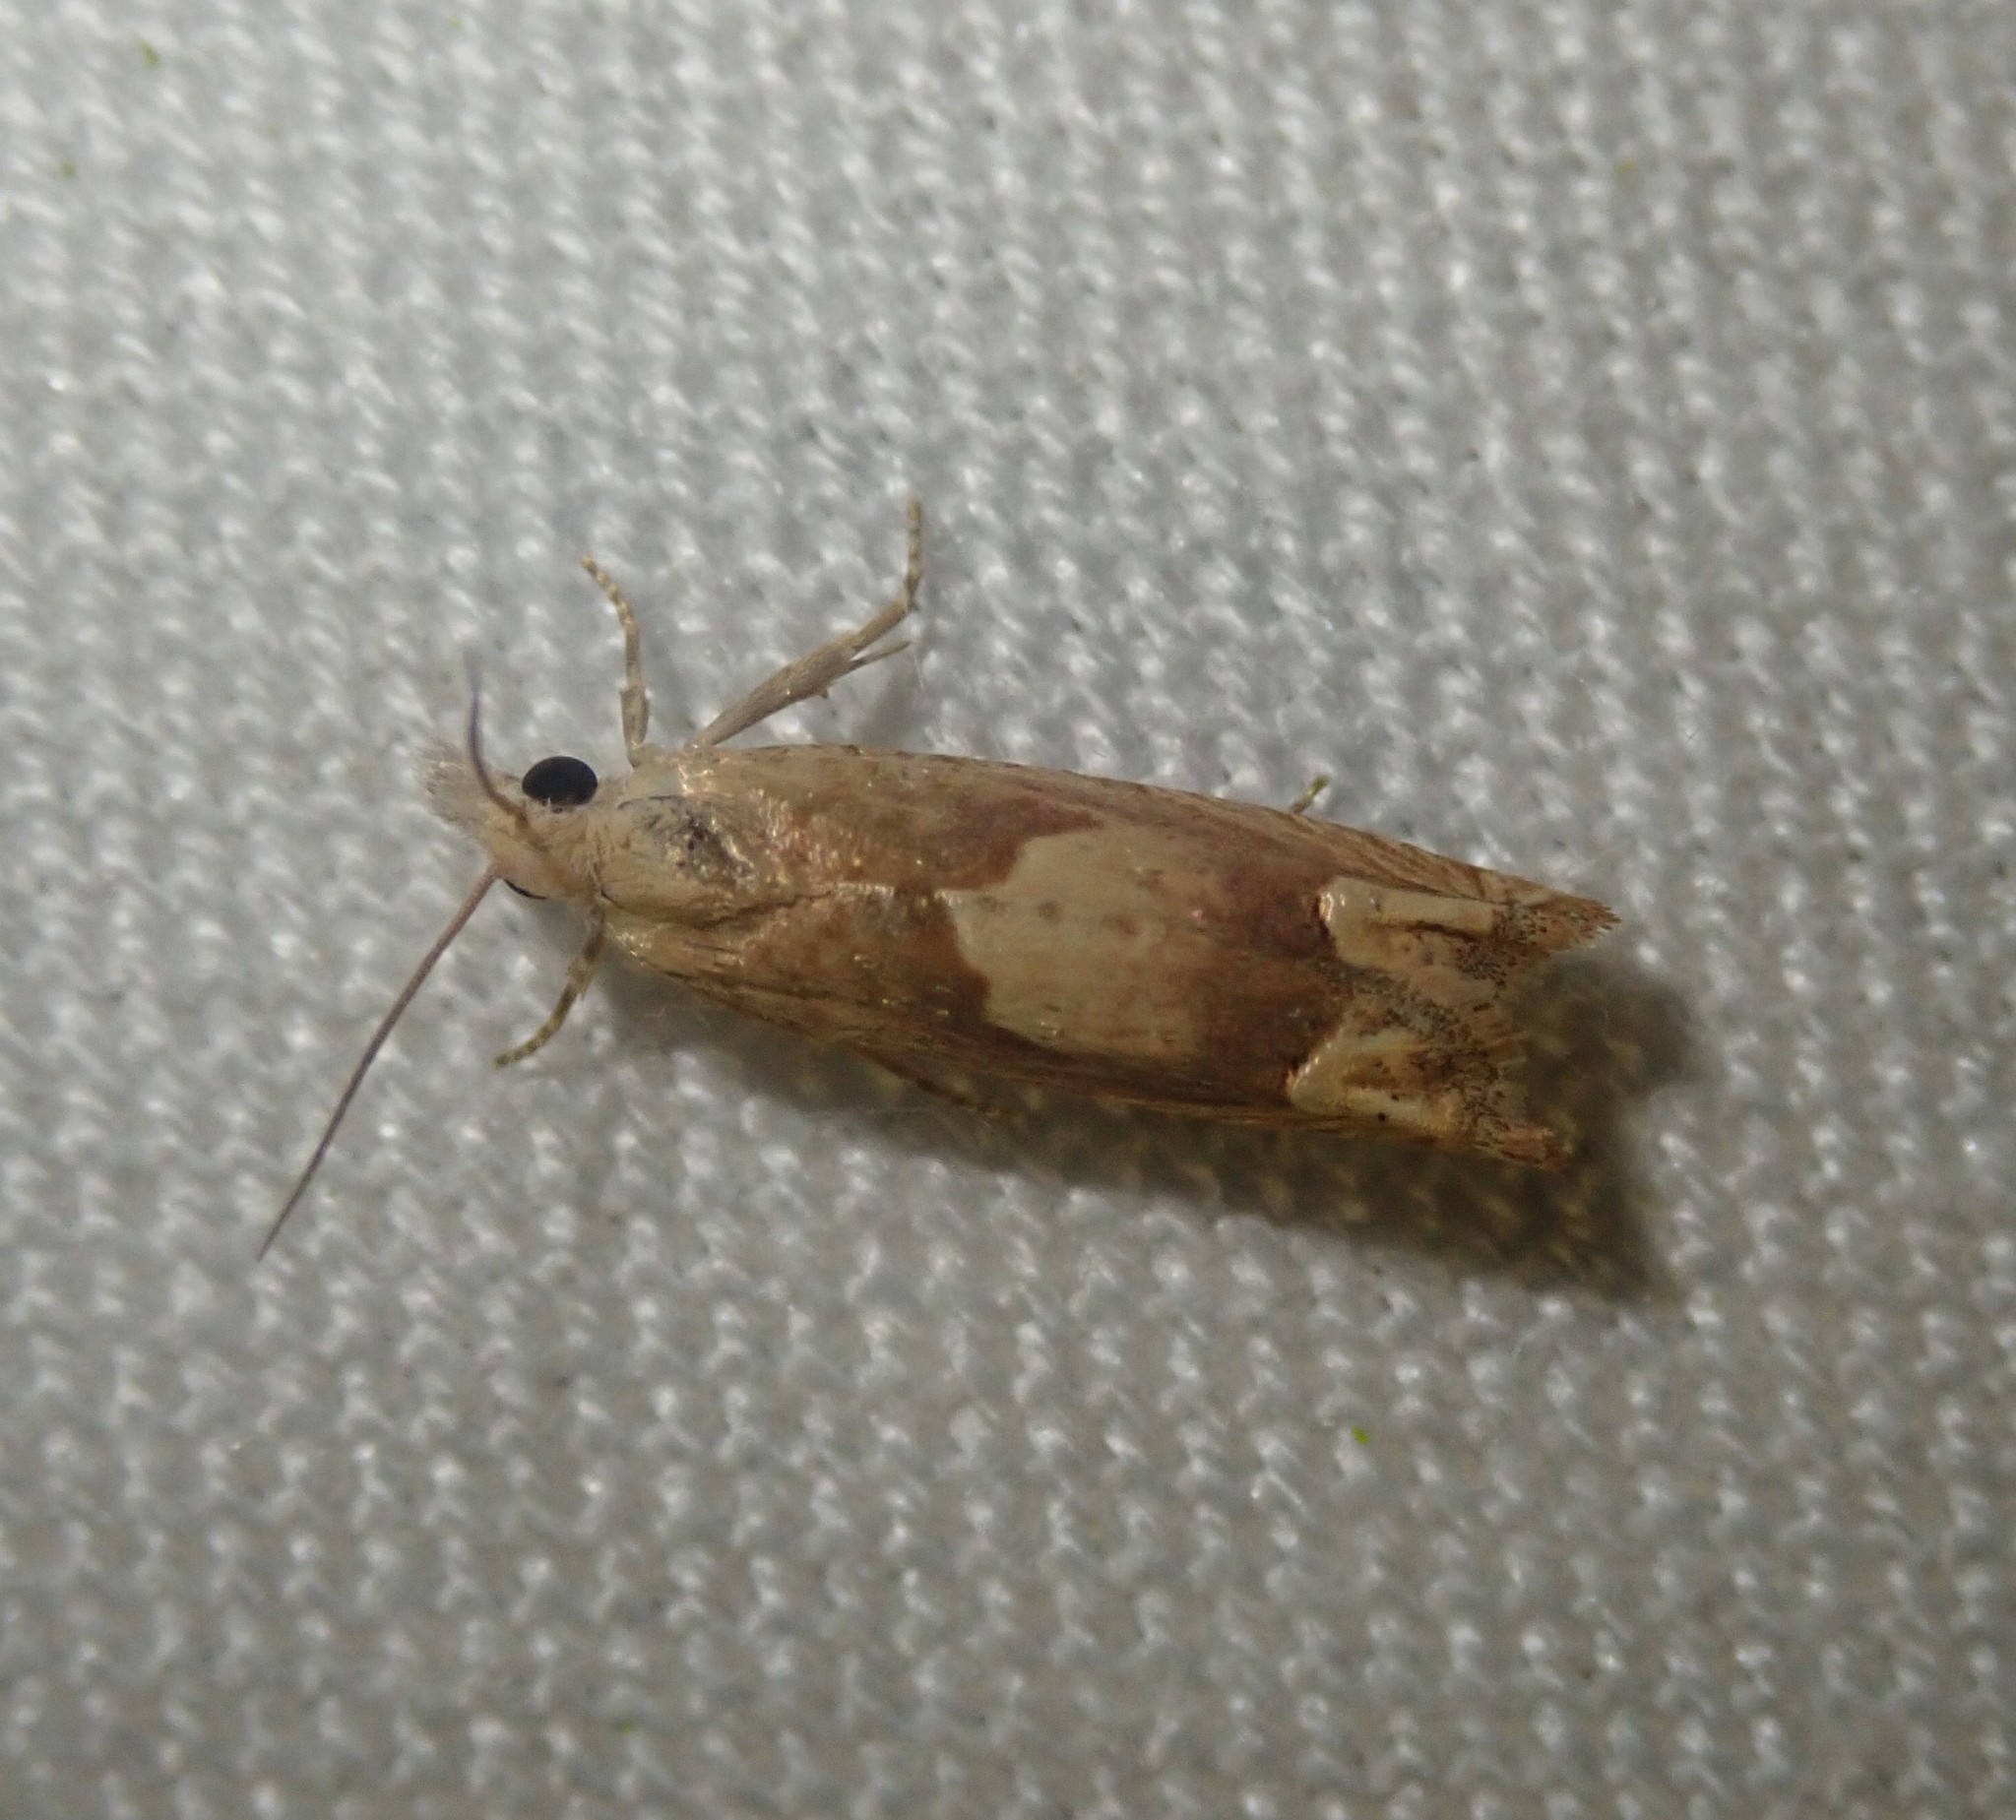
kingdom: Animalia
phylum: Arthropoda
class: Insecta
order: Lepidoptera
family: Tortricidae
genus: Eucosma
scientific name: Eucosma conterminana
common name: Pale lettuce bell
